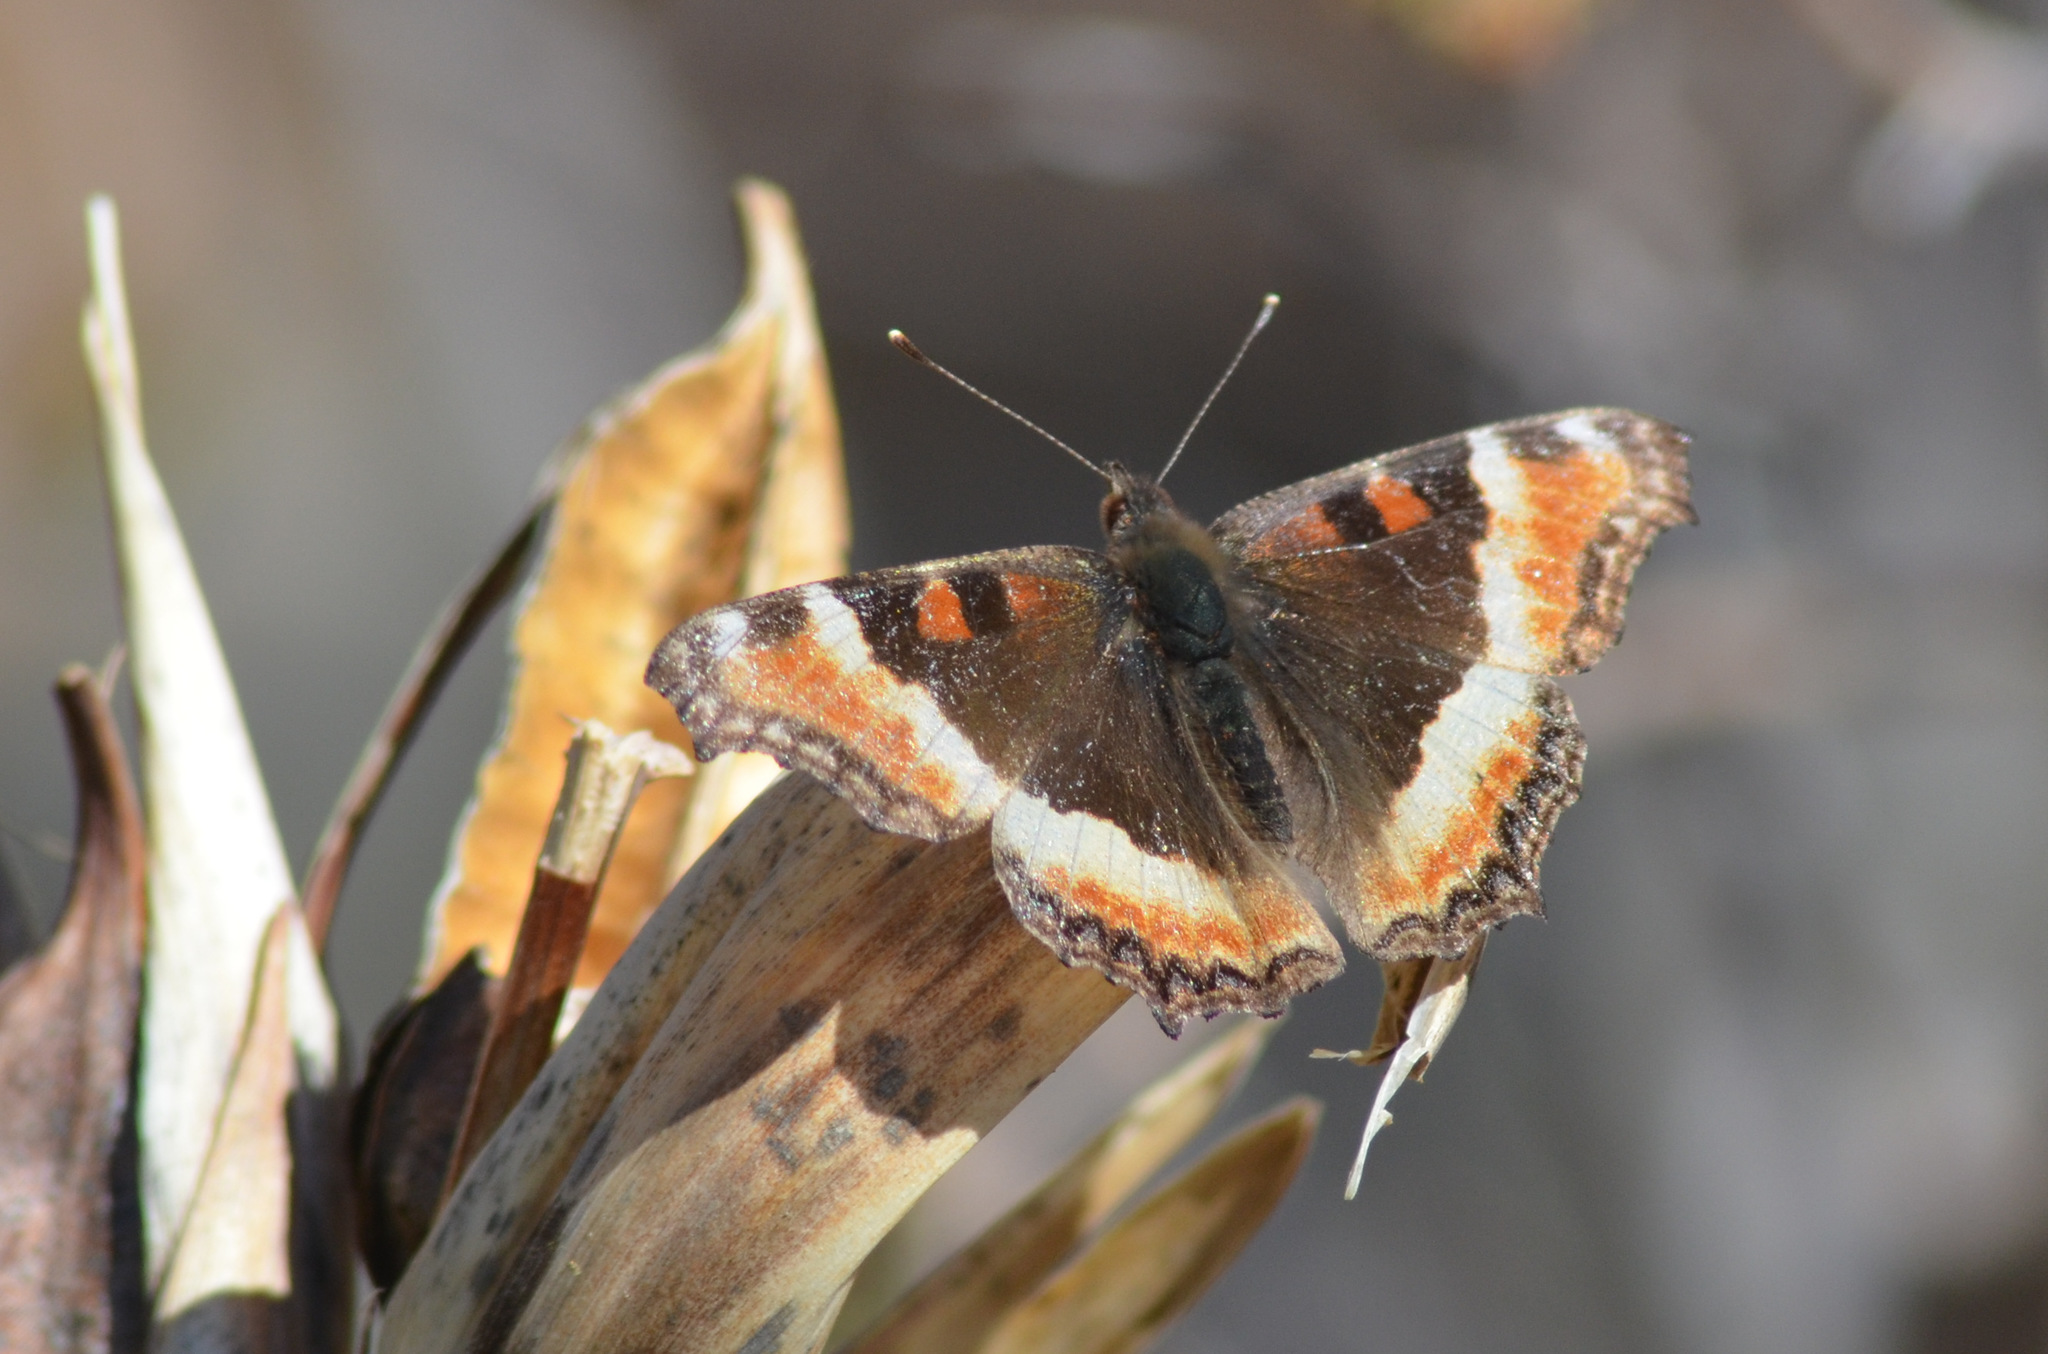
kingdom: Animalia
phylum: Arthropoda
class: Insecta
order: Lepidoptera
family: Nymphalidae
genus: Aglais
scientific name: Aglais milberti
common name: Milbert's tortoiseshell
